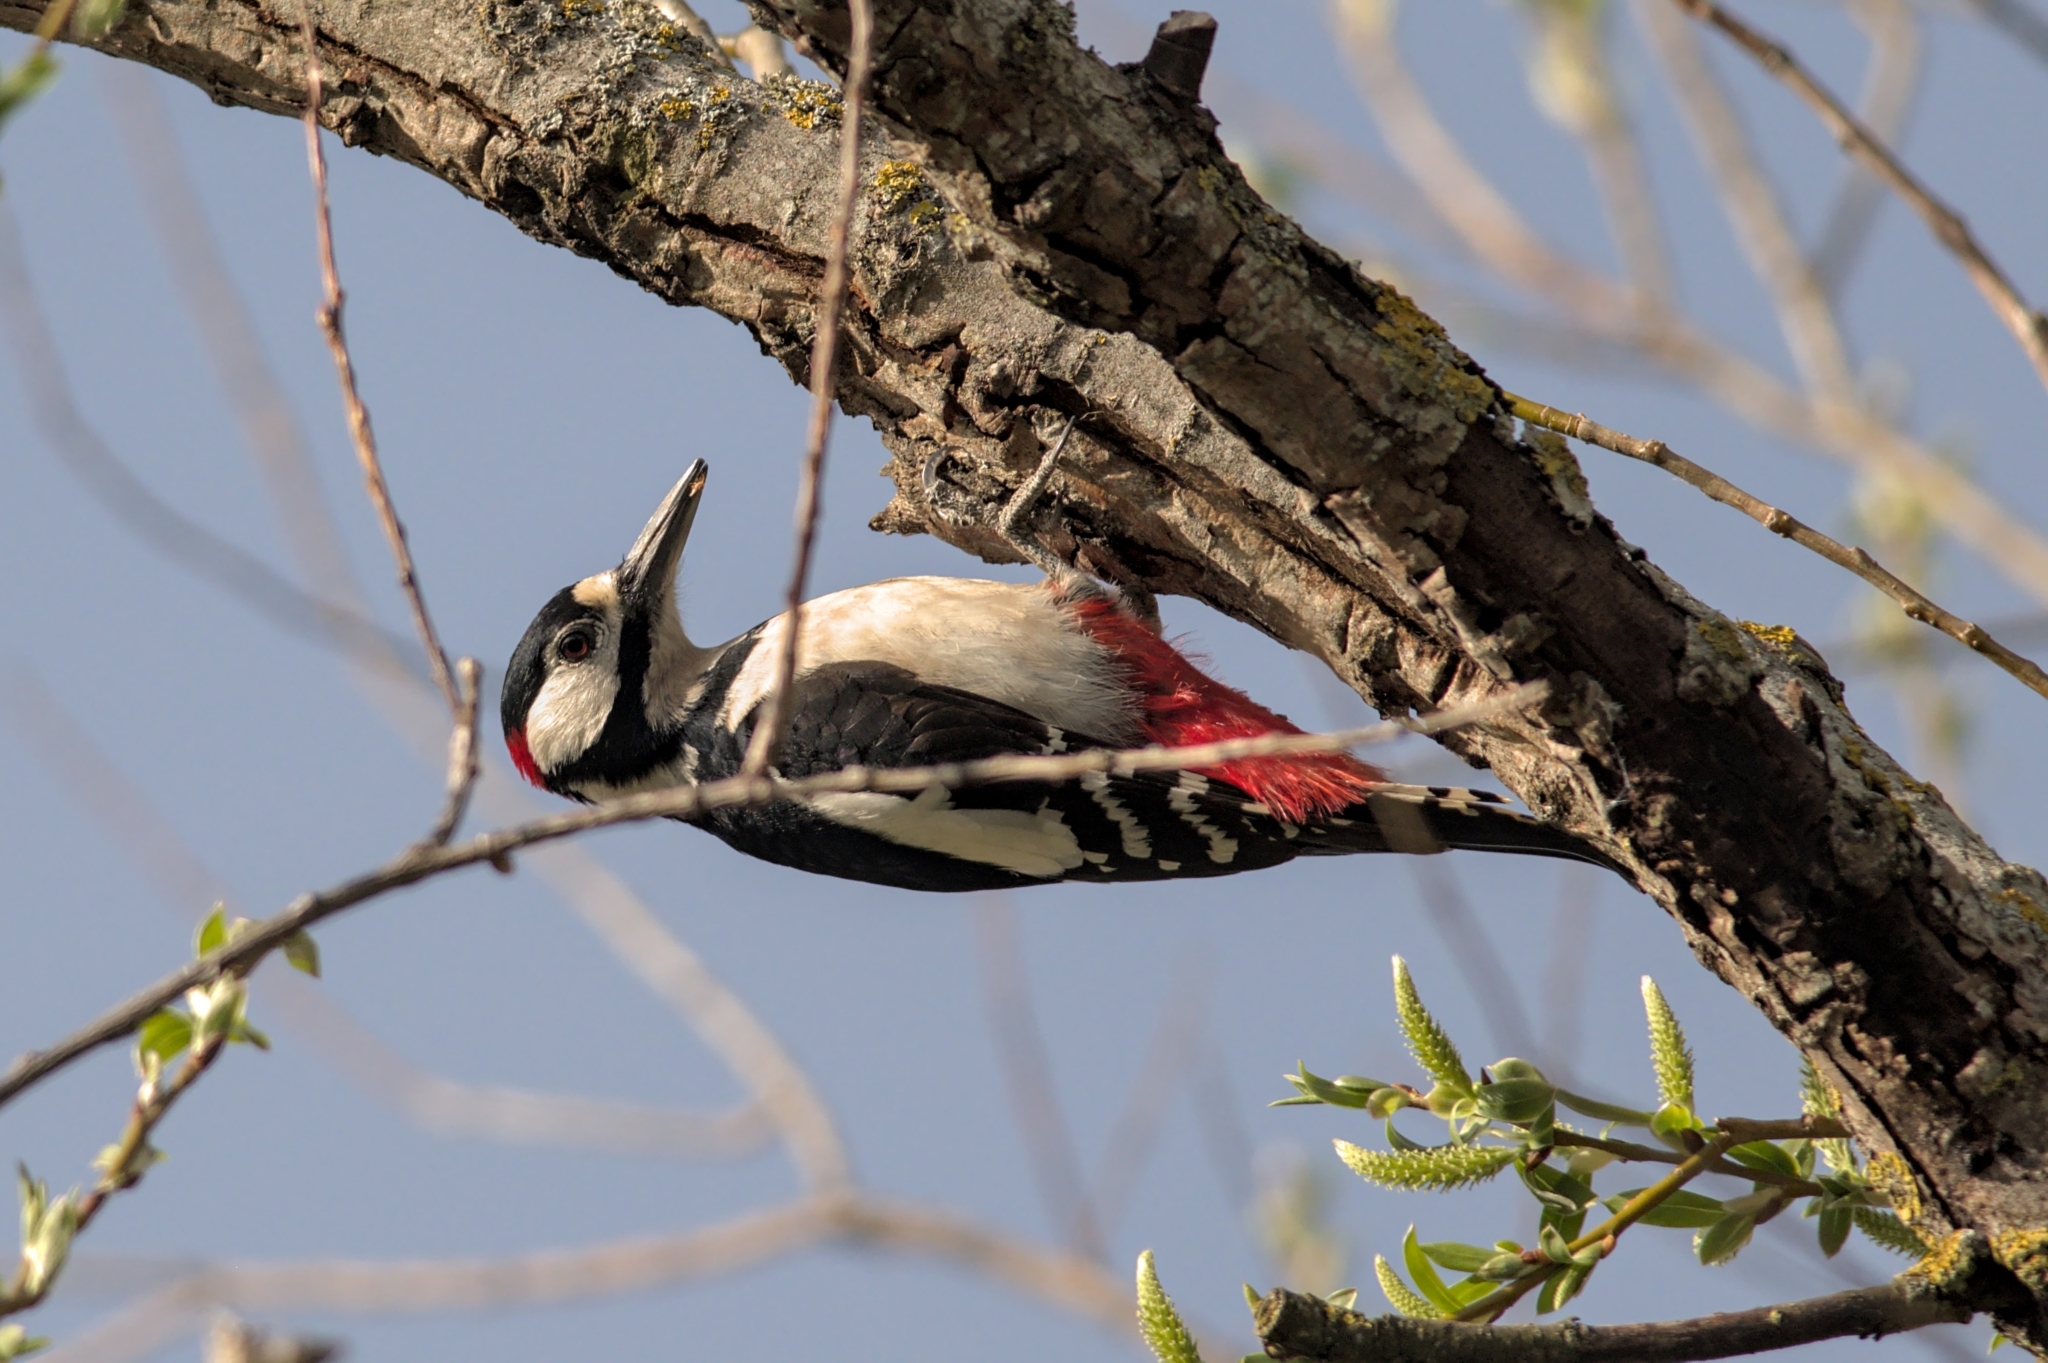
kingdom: Animalia
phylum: Chordata
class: Aves
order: Piciformes
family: Picidae
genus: Dendrocopos
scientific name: Dendrocopos major
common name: Great spotted woodpecker
